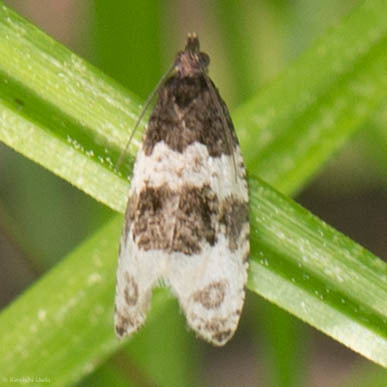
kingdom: Animalia
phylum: Arthropoda
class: Insecta
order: Lepidoptera
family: Tortricidae
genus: Olethreutes
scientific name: Olethreutes bipartitana
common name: Divided olethreutes moth
